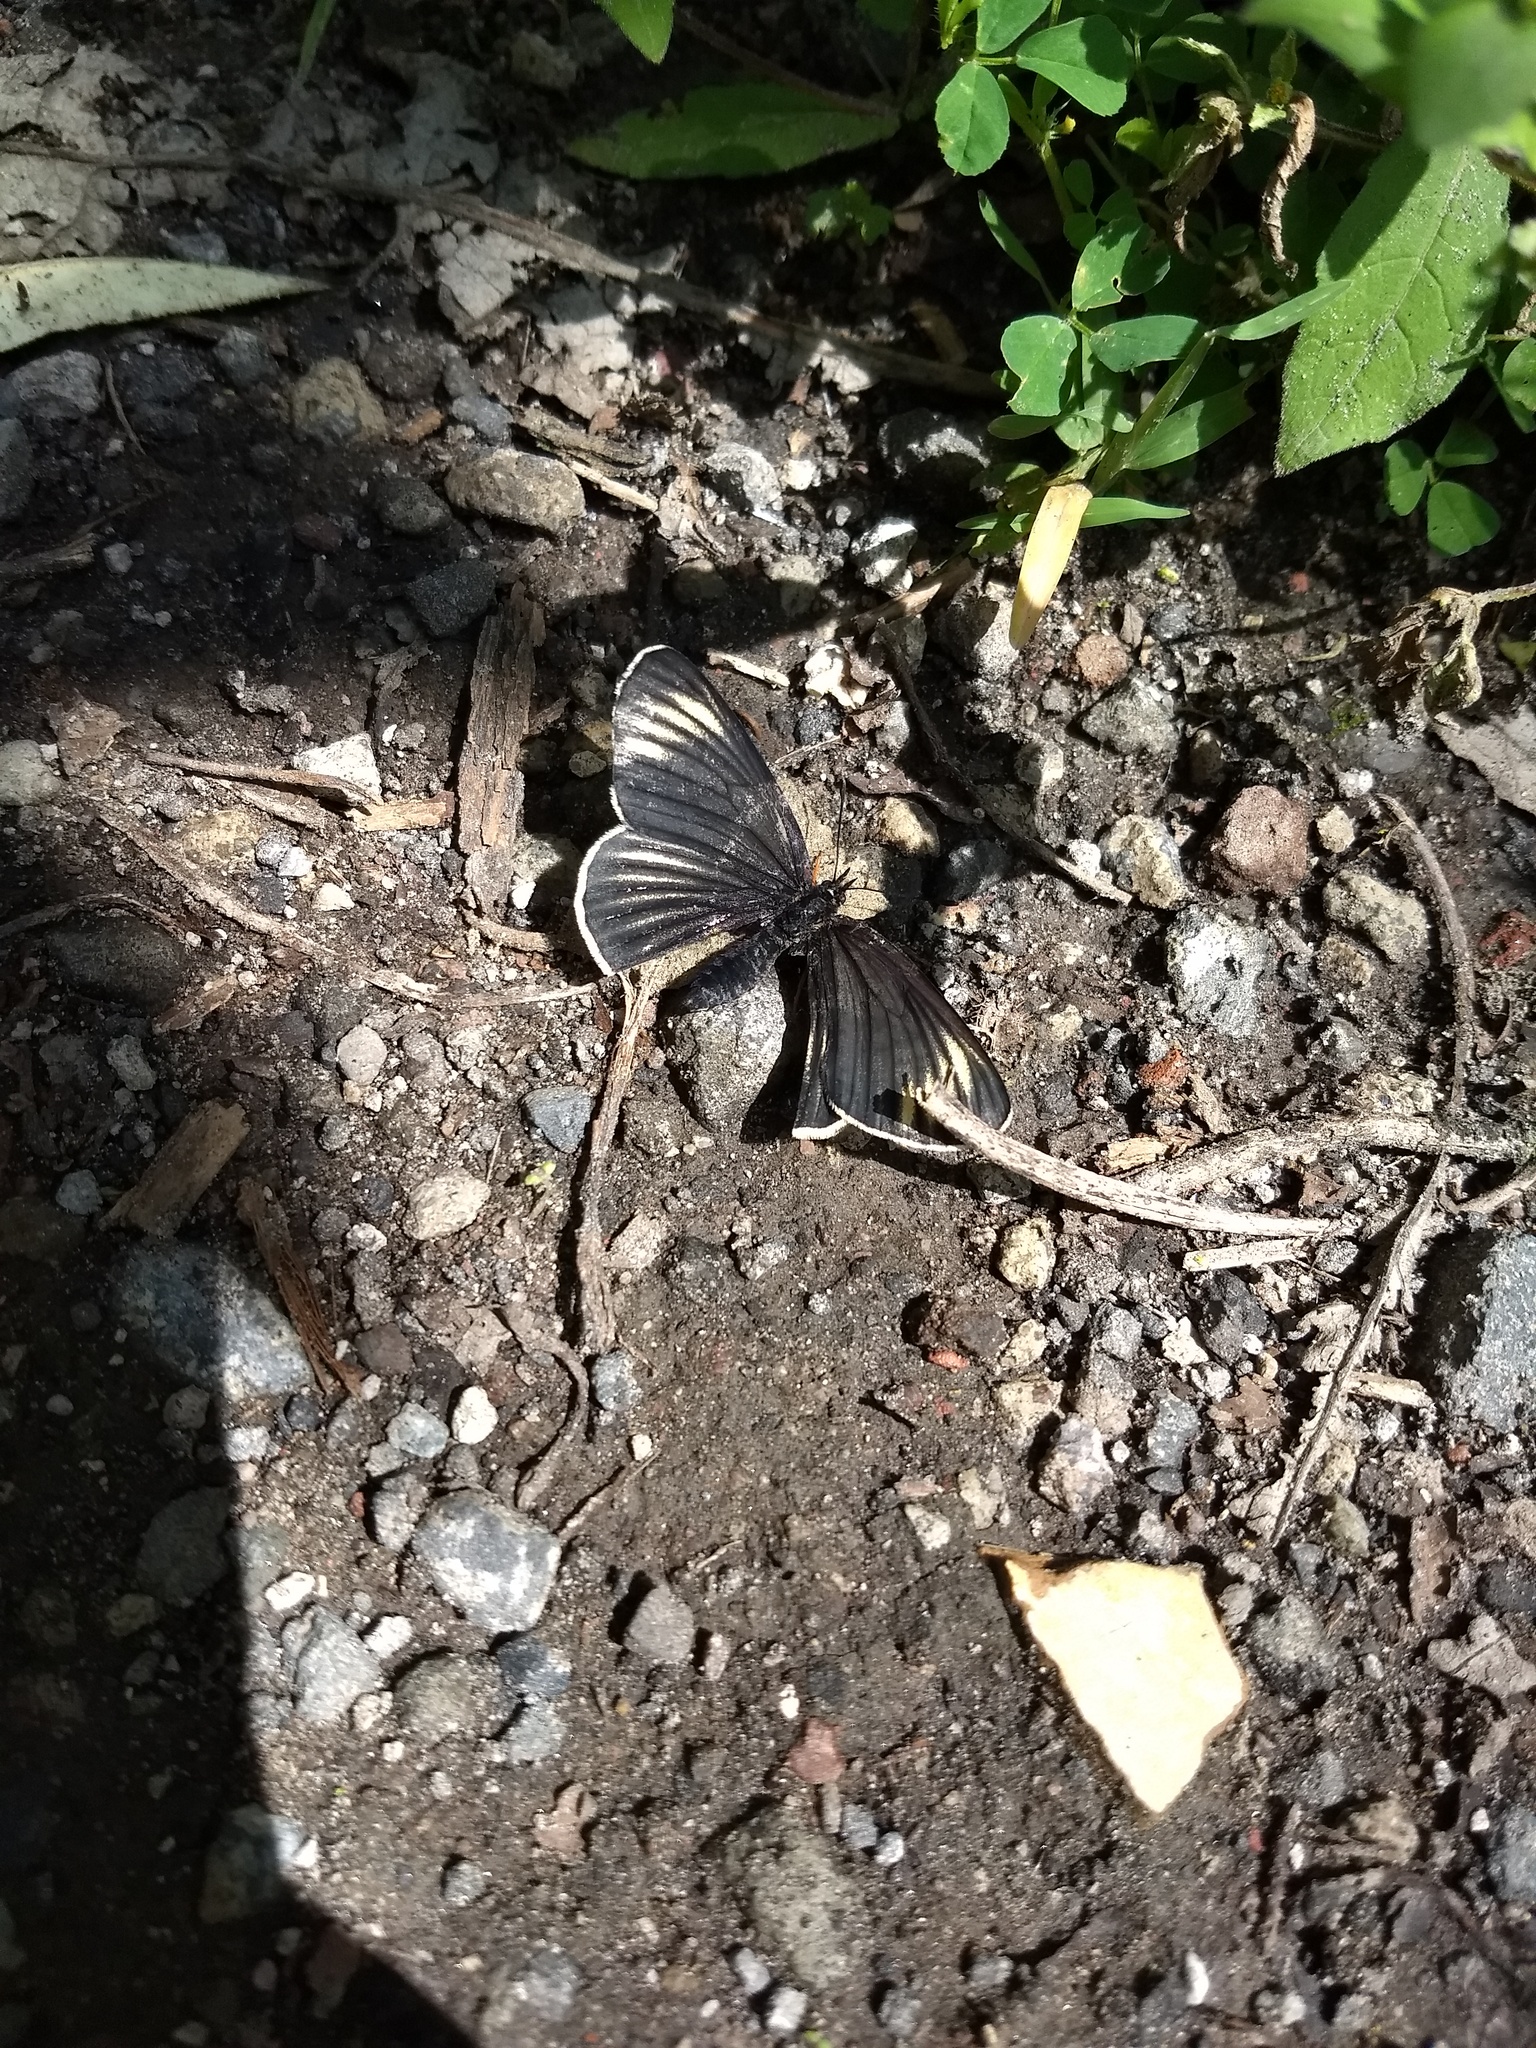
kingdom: Animalia
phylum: Arthropoda
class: Insecta
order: Lepidoptera
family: Nymphalidae
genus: Chlosyne
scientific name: Chlosyne ehrenbergii
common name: White-rayed patch
